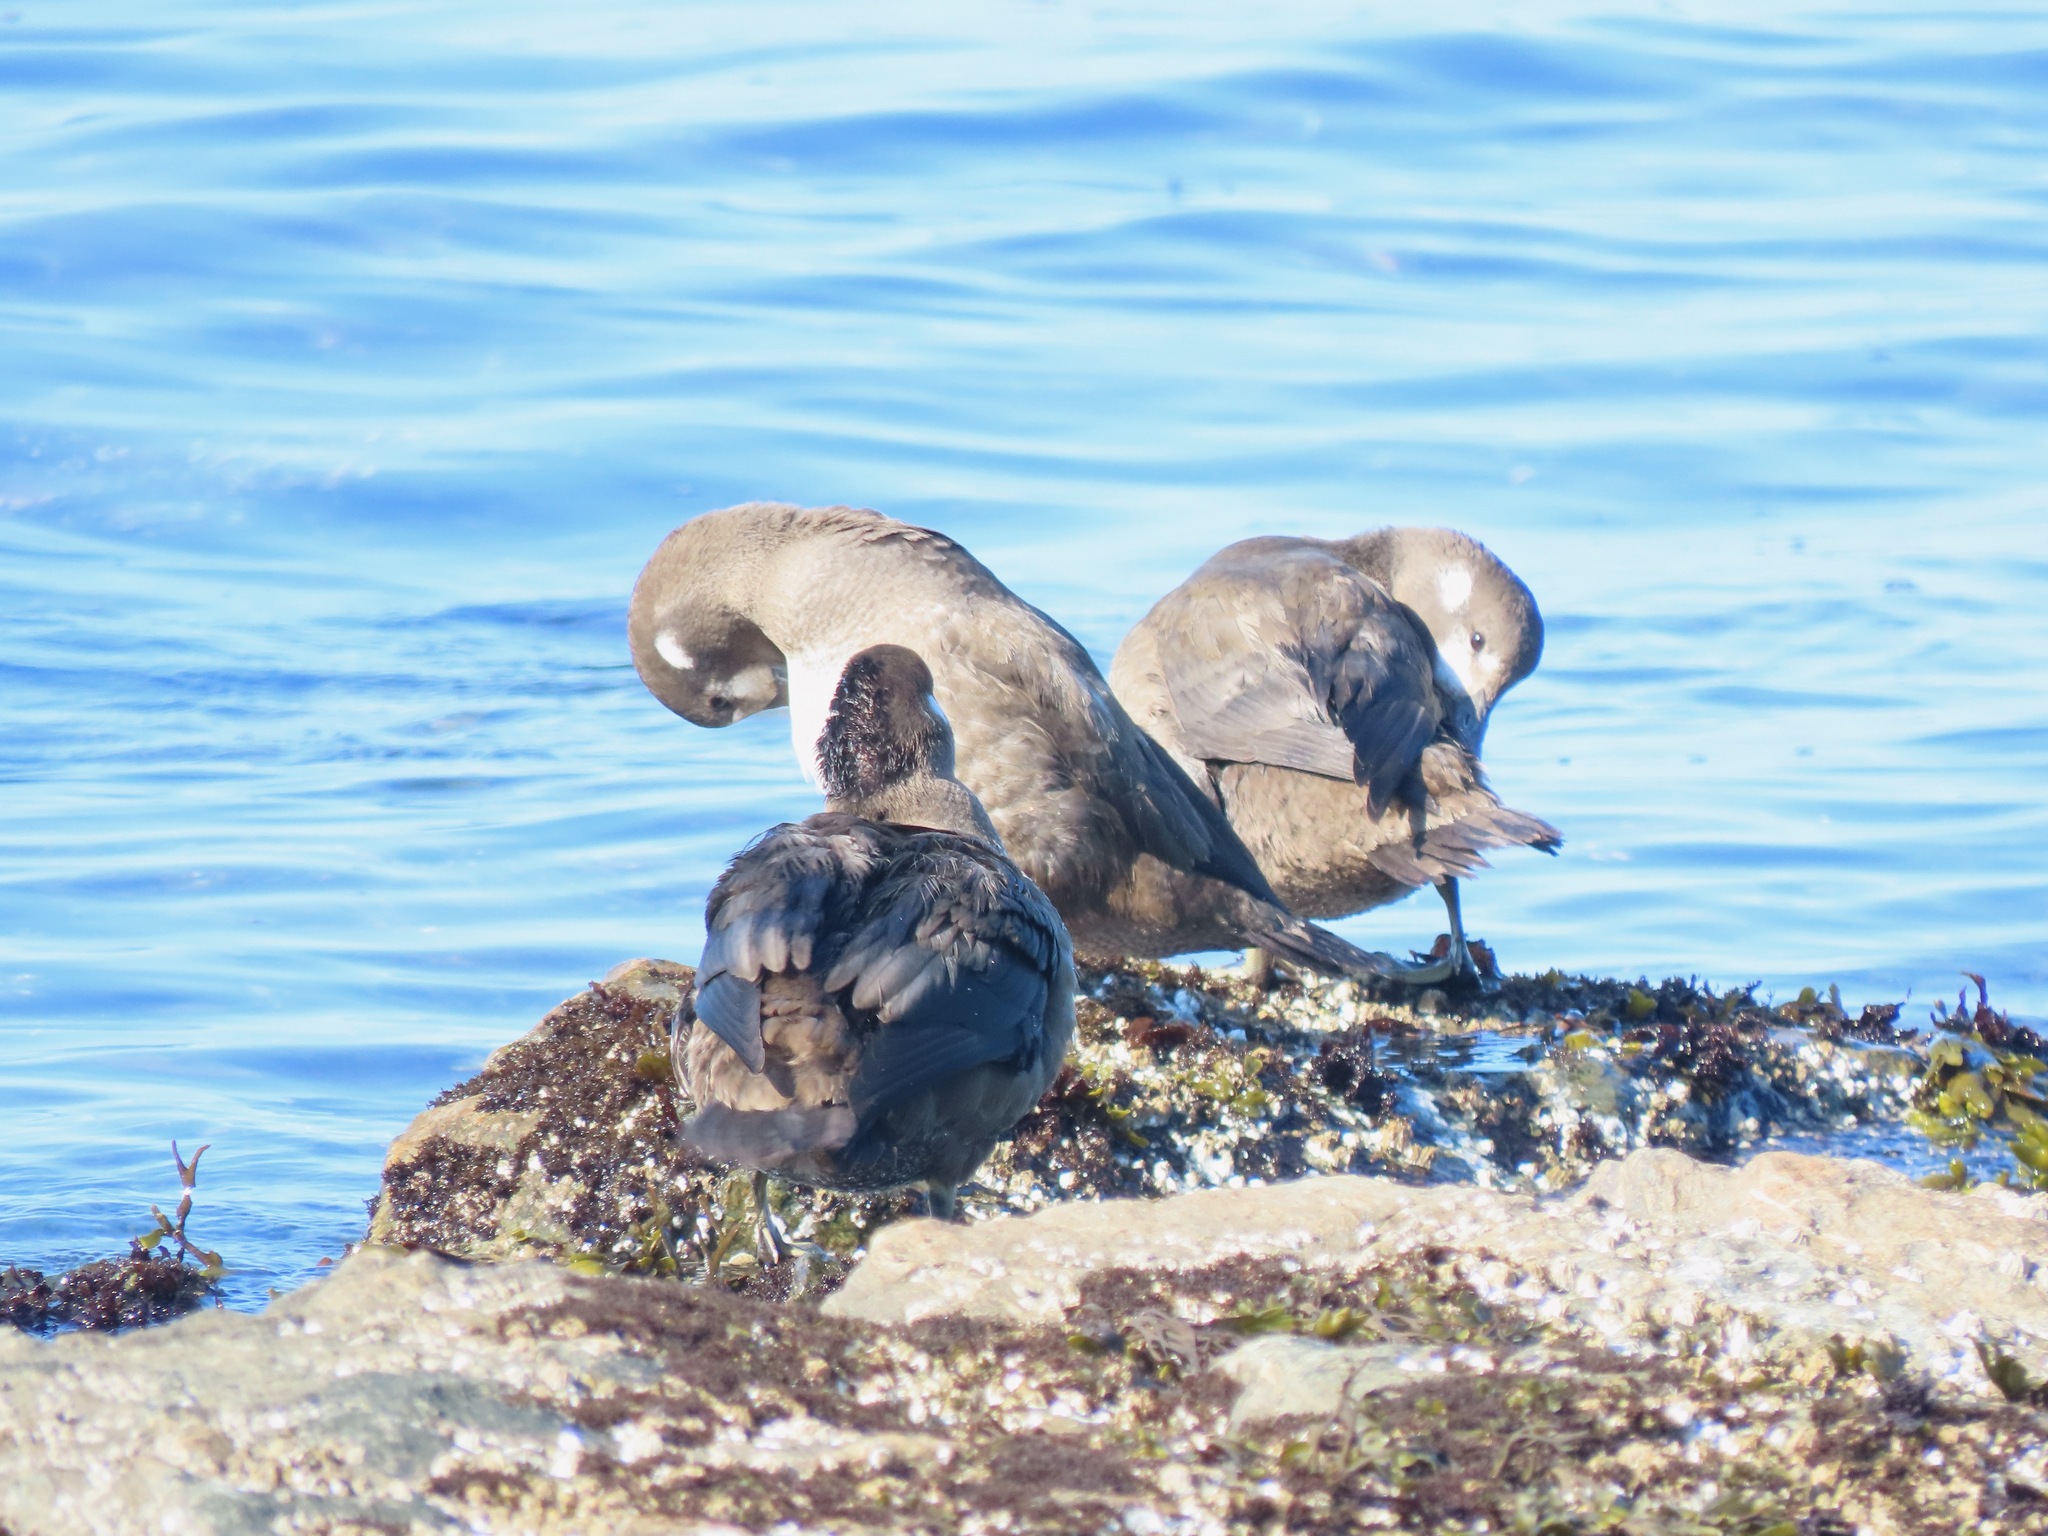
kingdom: Animalia
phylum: Chordata
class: Aves
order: Anseriformes
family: Anatidae
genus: Histrionicus
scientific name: Histrionicus histrionicus
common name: Harlequin duck
